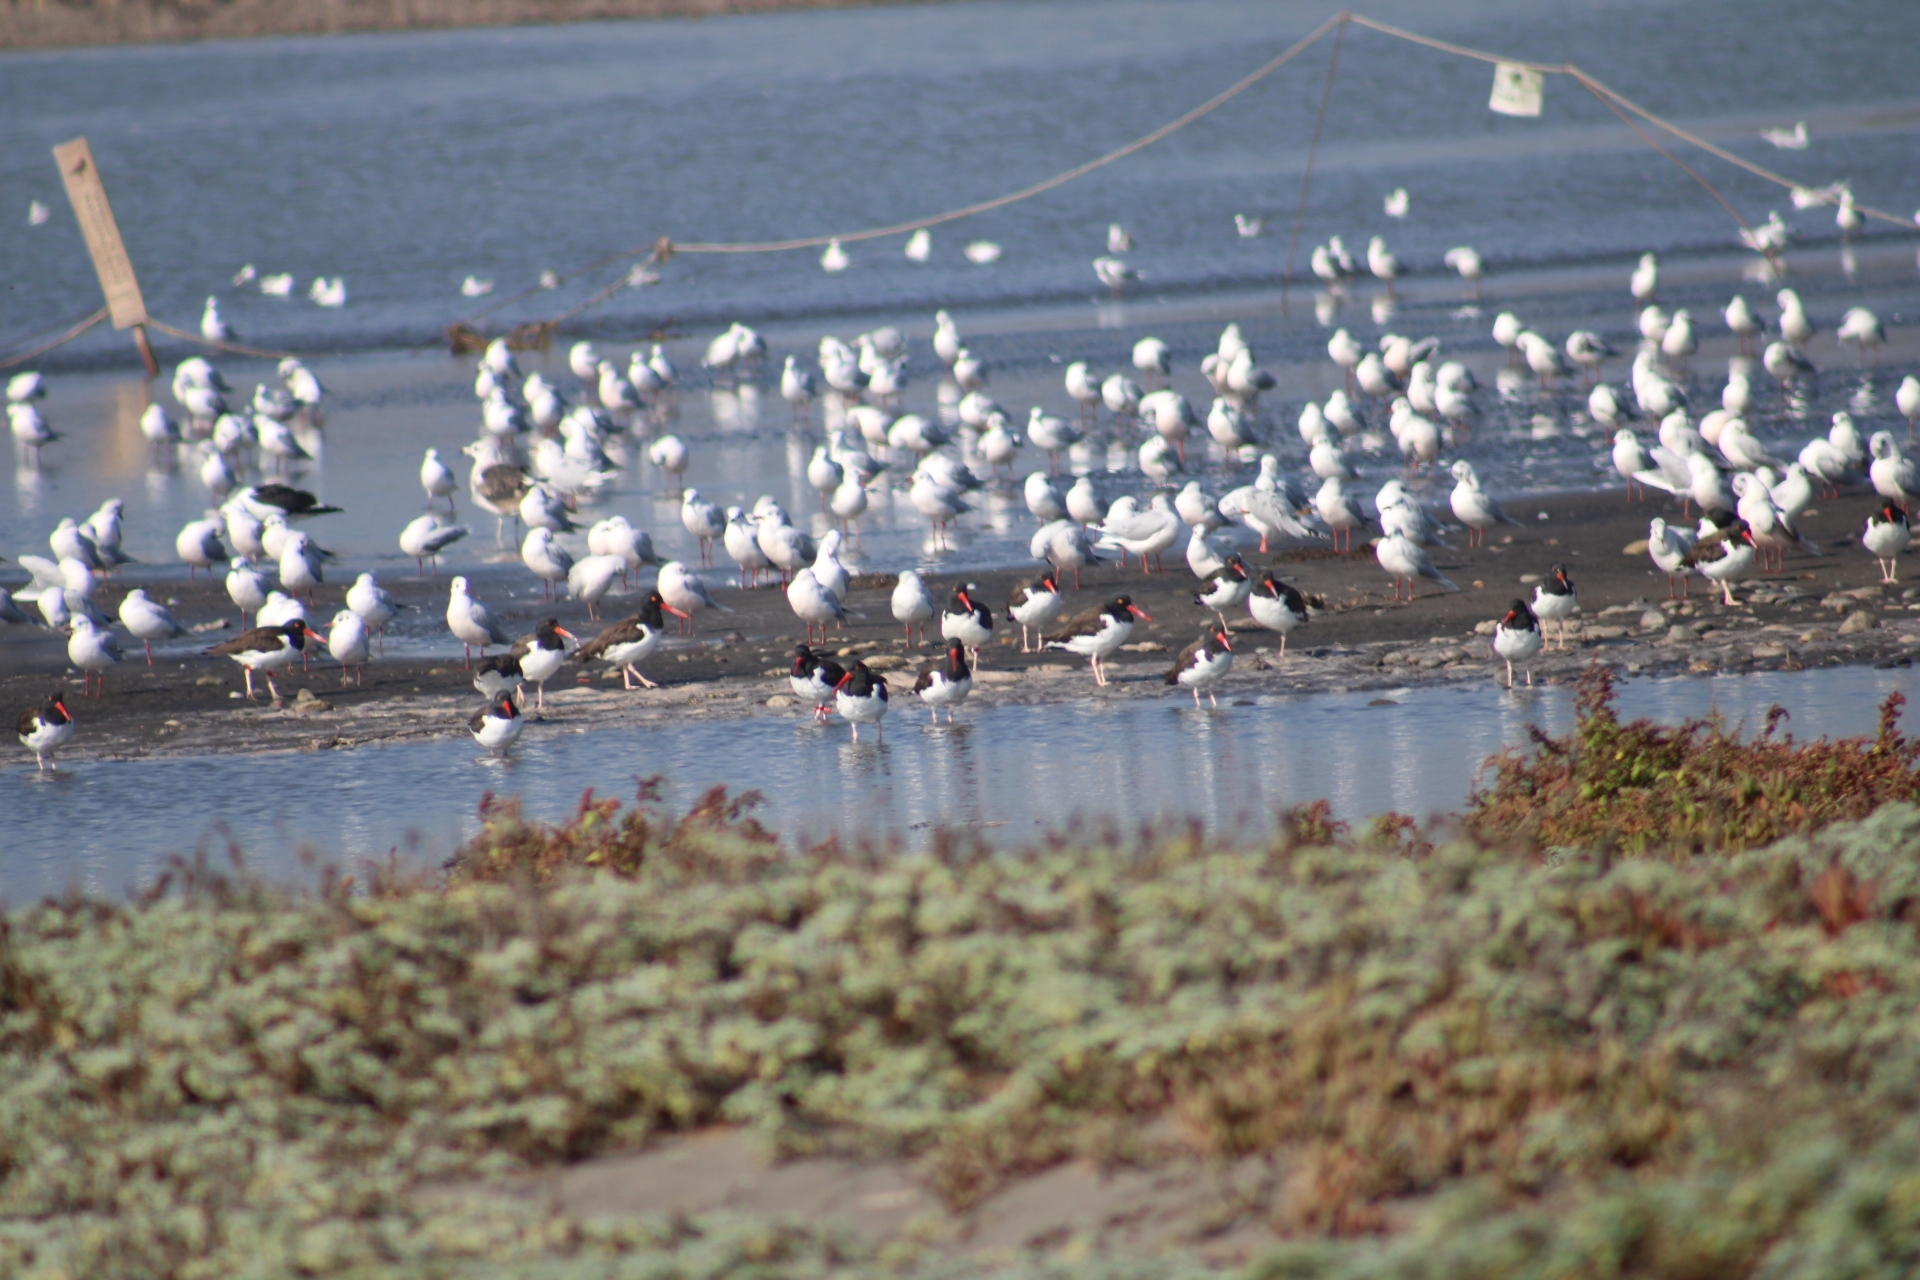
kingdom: Animalia
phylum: Chordata
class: Aves
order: Charadriiformes
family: Haematopodidae
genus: Haematopus
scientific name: Haematopus palliatus
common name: American oystercatcher
